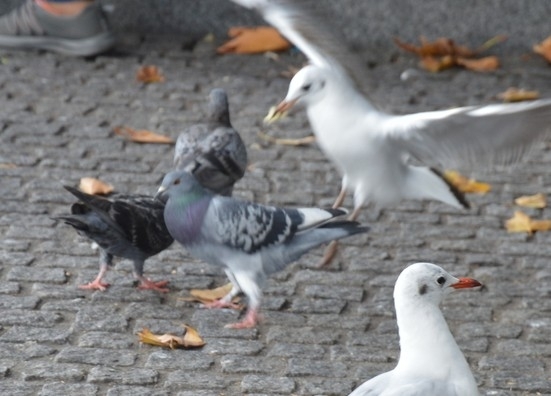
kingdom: Animalia
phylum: Chordata
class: Aves
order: Columbiformes
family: Columbidae
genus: Columba
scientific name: Columba livia
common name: Rock pigeon
